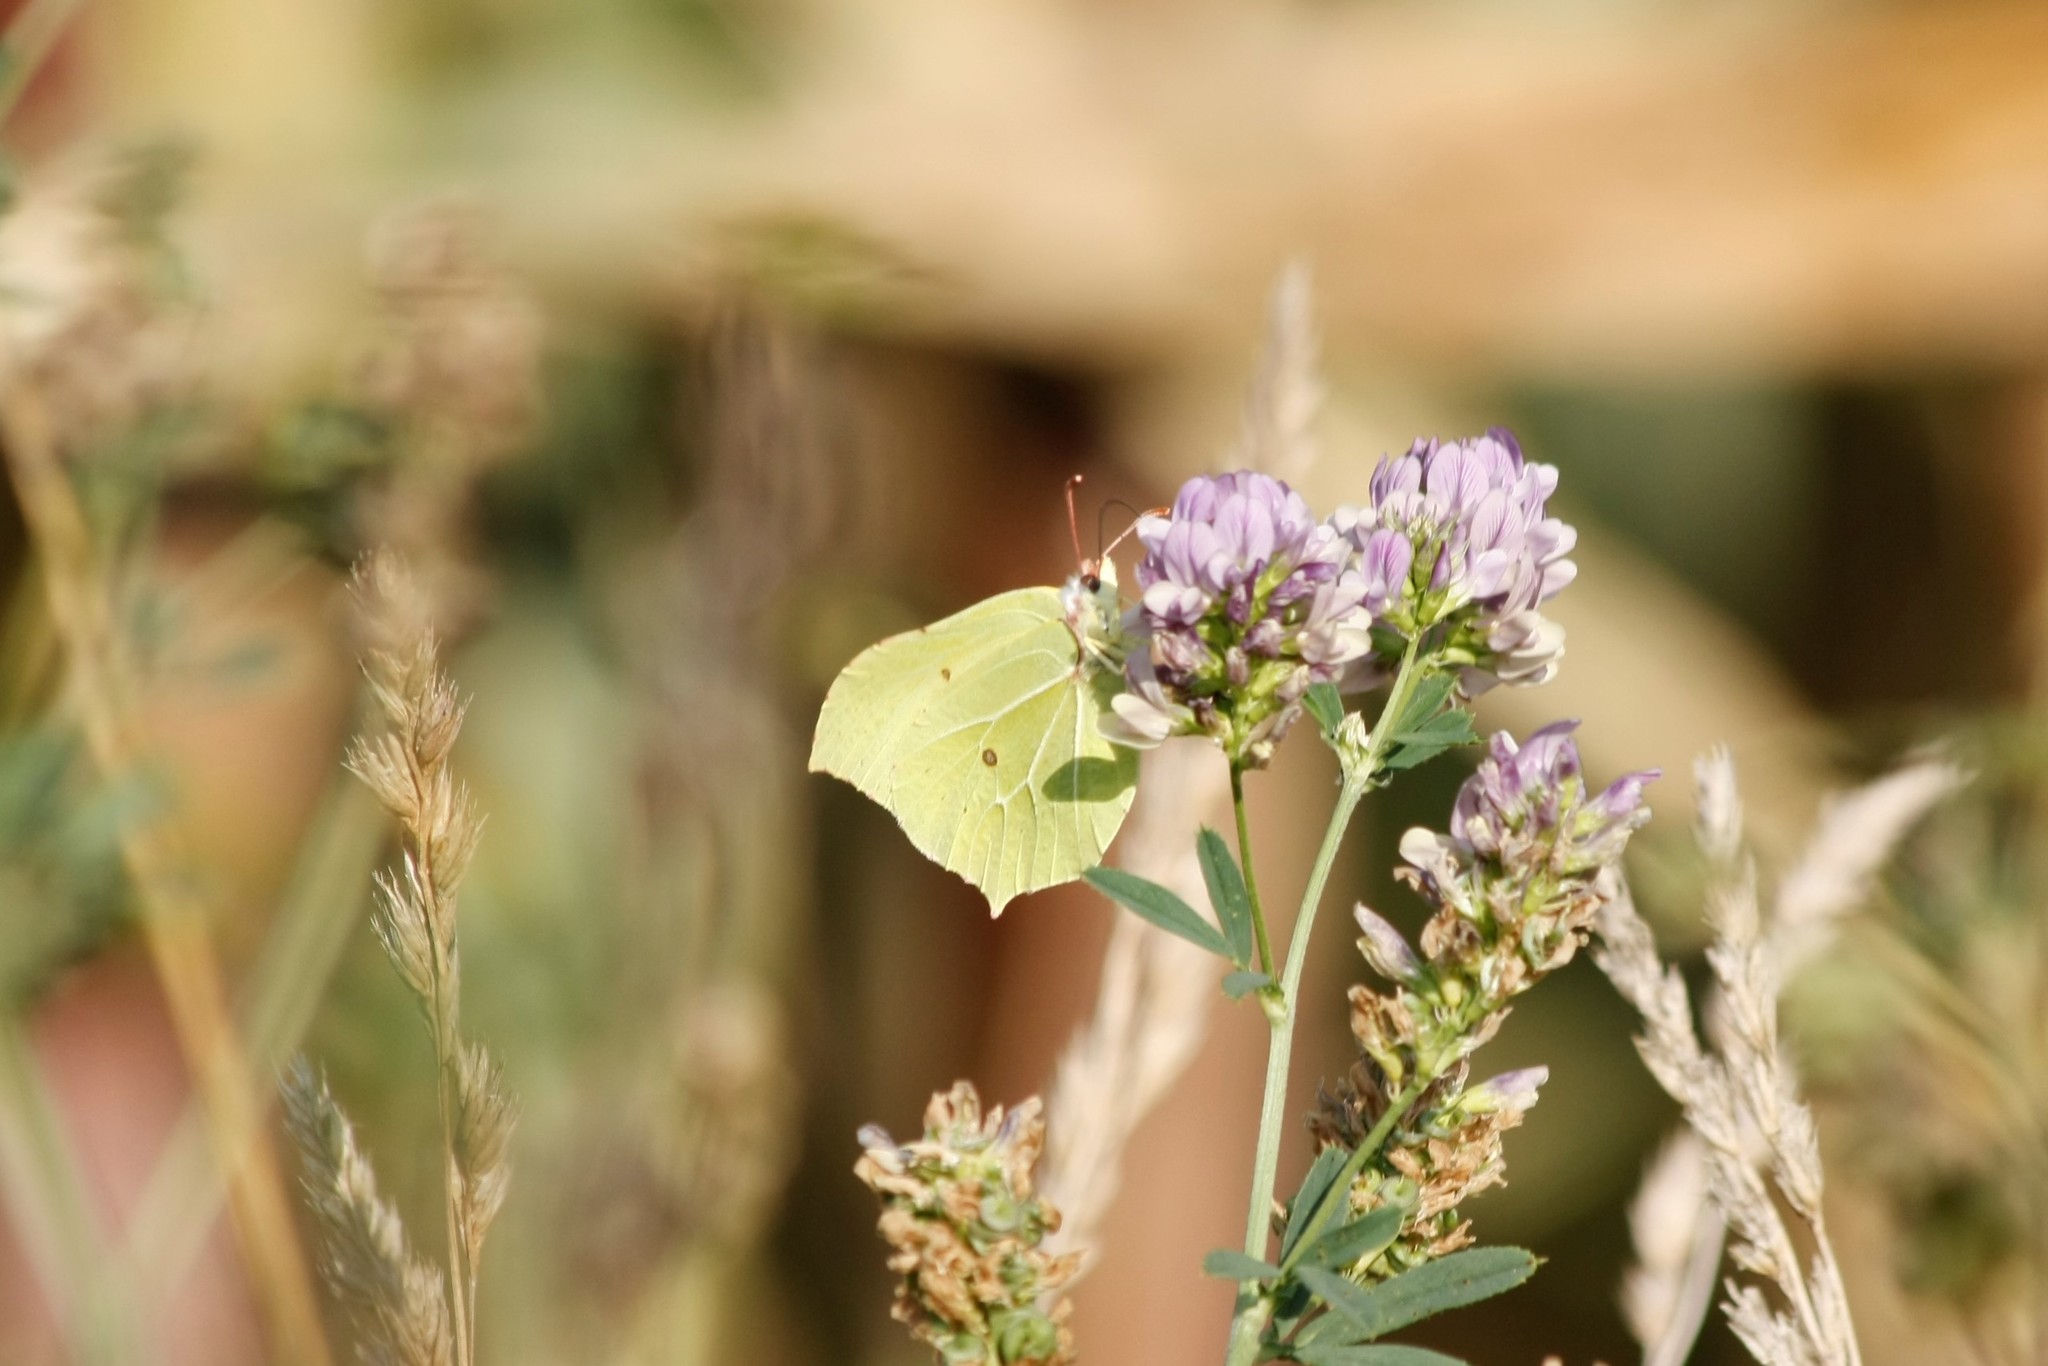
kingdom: Animalia
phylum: Arthropoda
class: Insecta
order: Lepidoptera
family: Pieridae
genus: Gonepteryx
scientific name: Gonepteryx rhamni
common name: Brimstone
